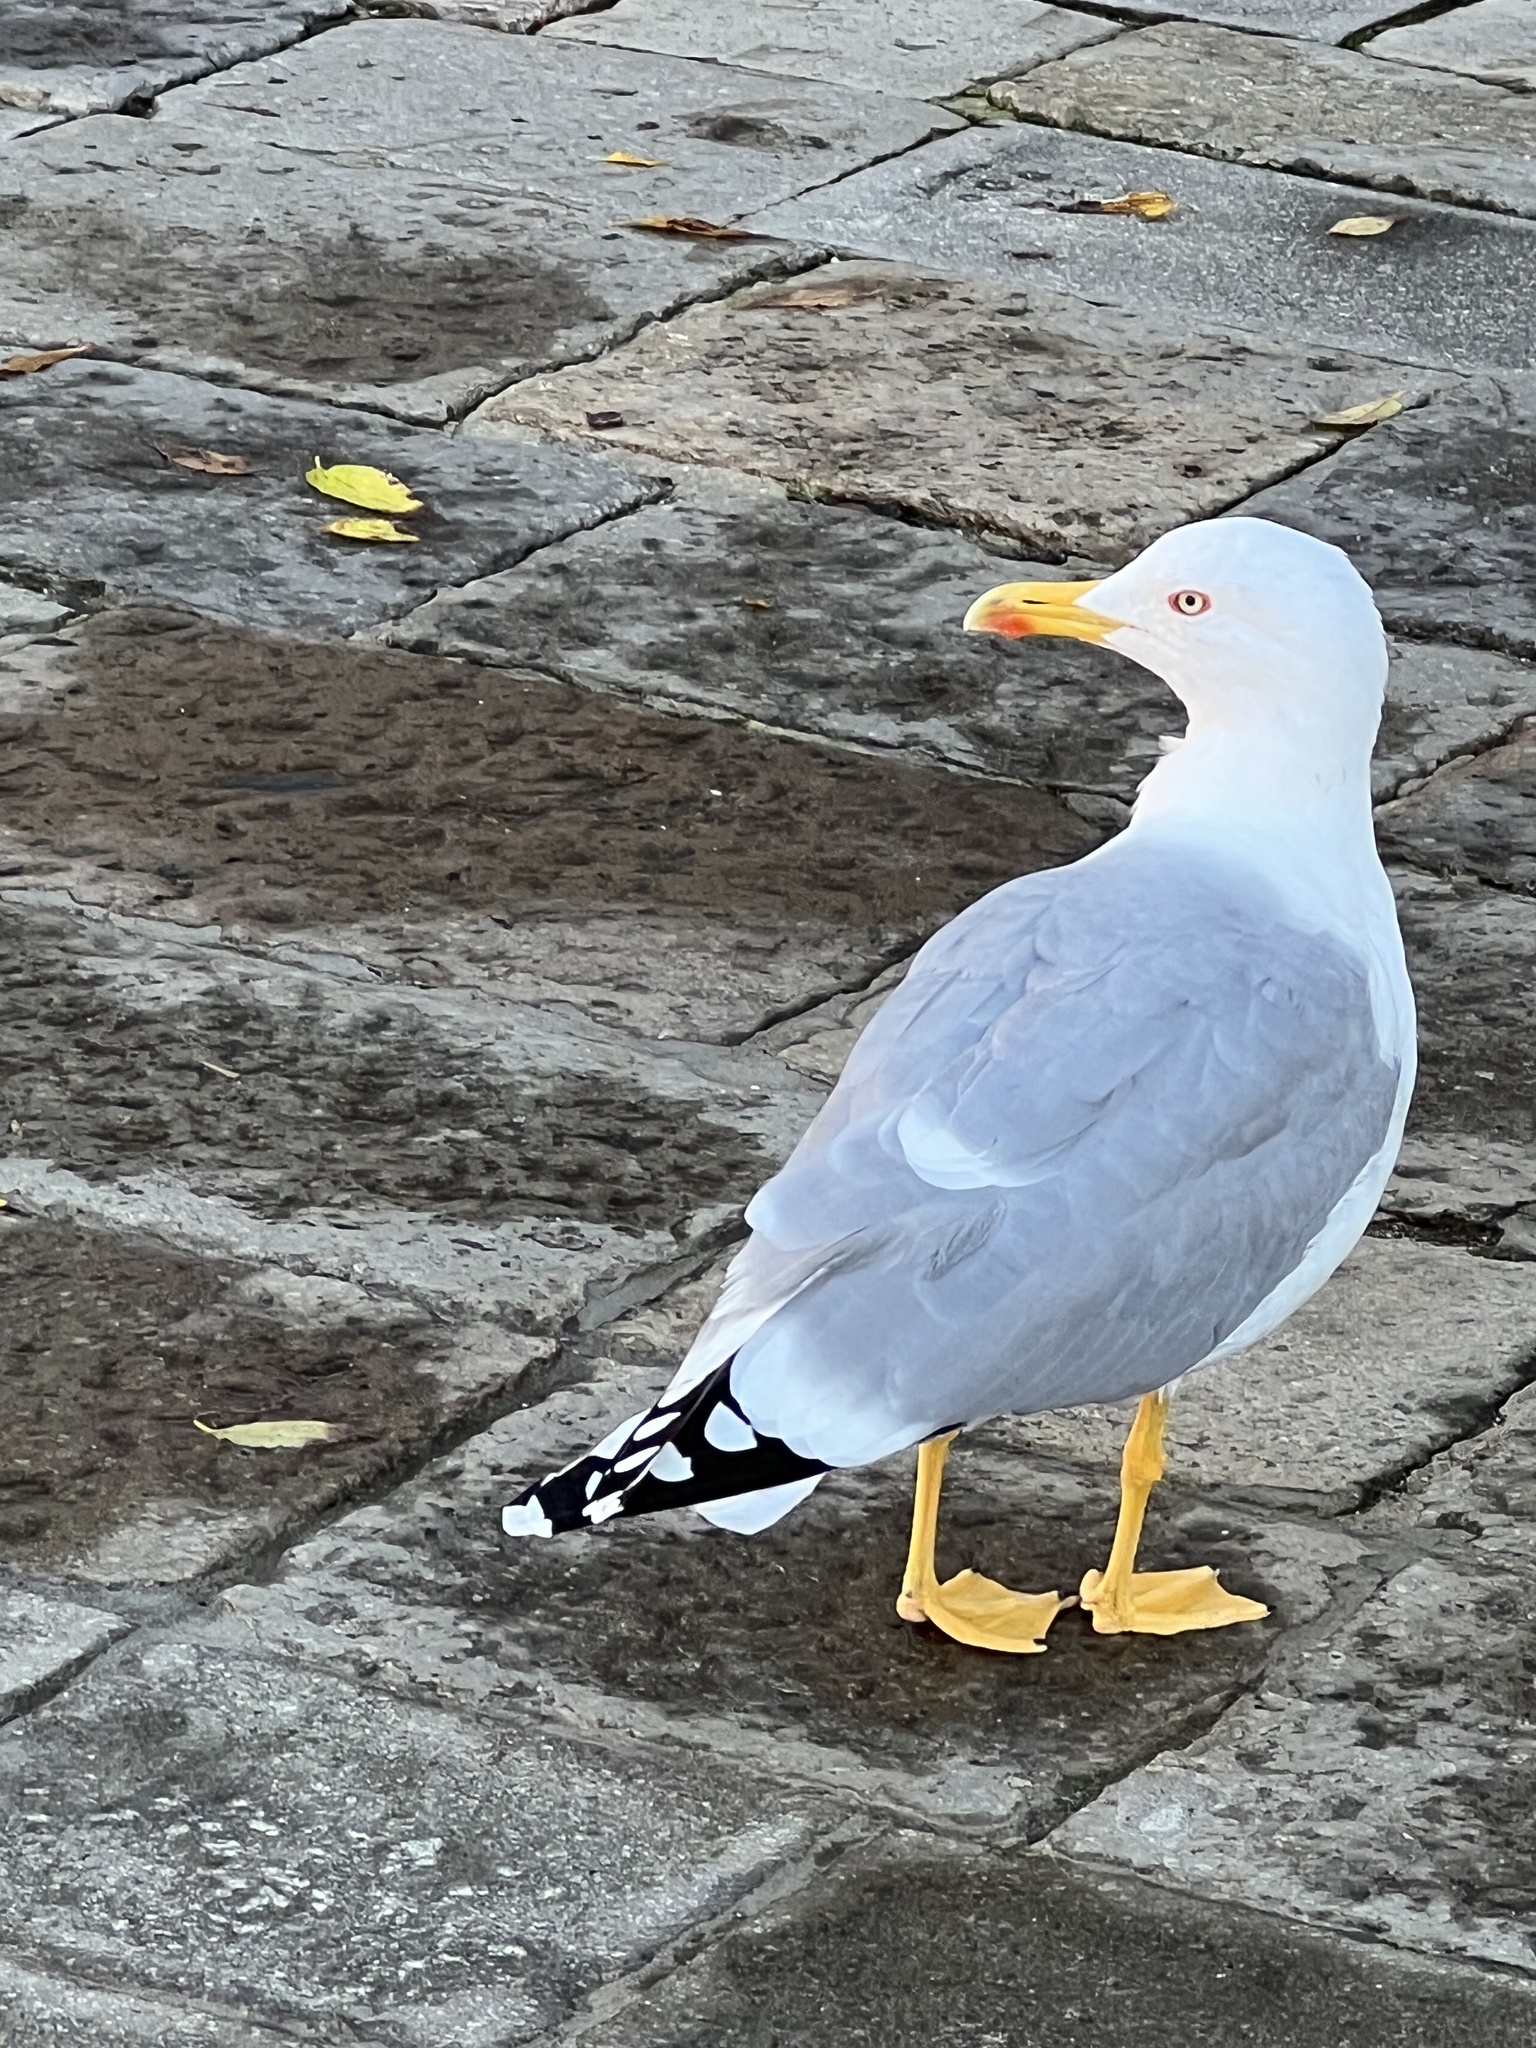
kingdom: Animalia
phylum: Chordata
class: Aves
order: Charadriiformes
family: Laridae
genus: Larus
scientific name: Larus michahellis
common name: Yellow-legged gull
